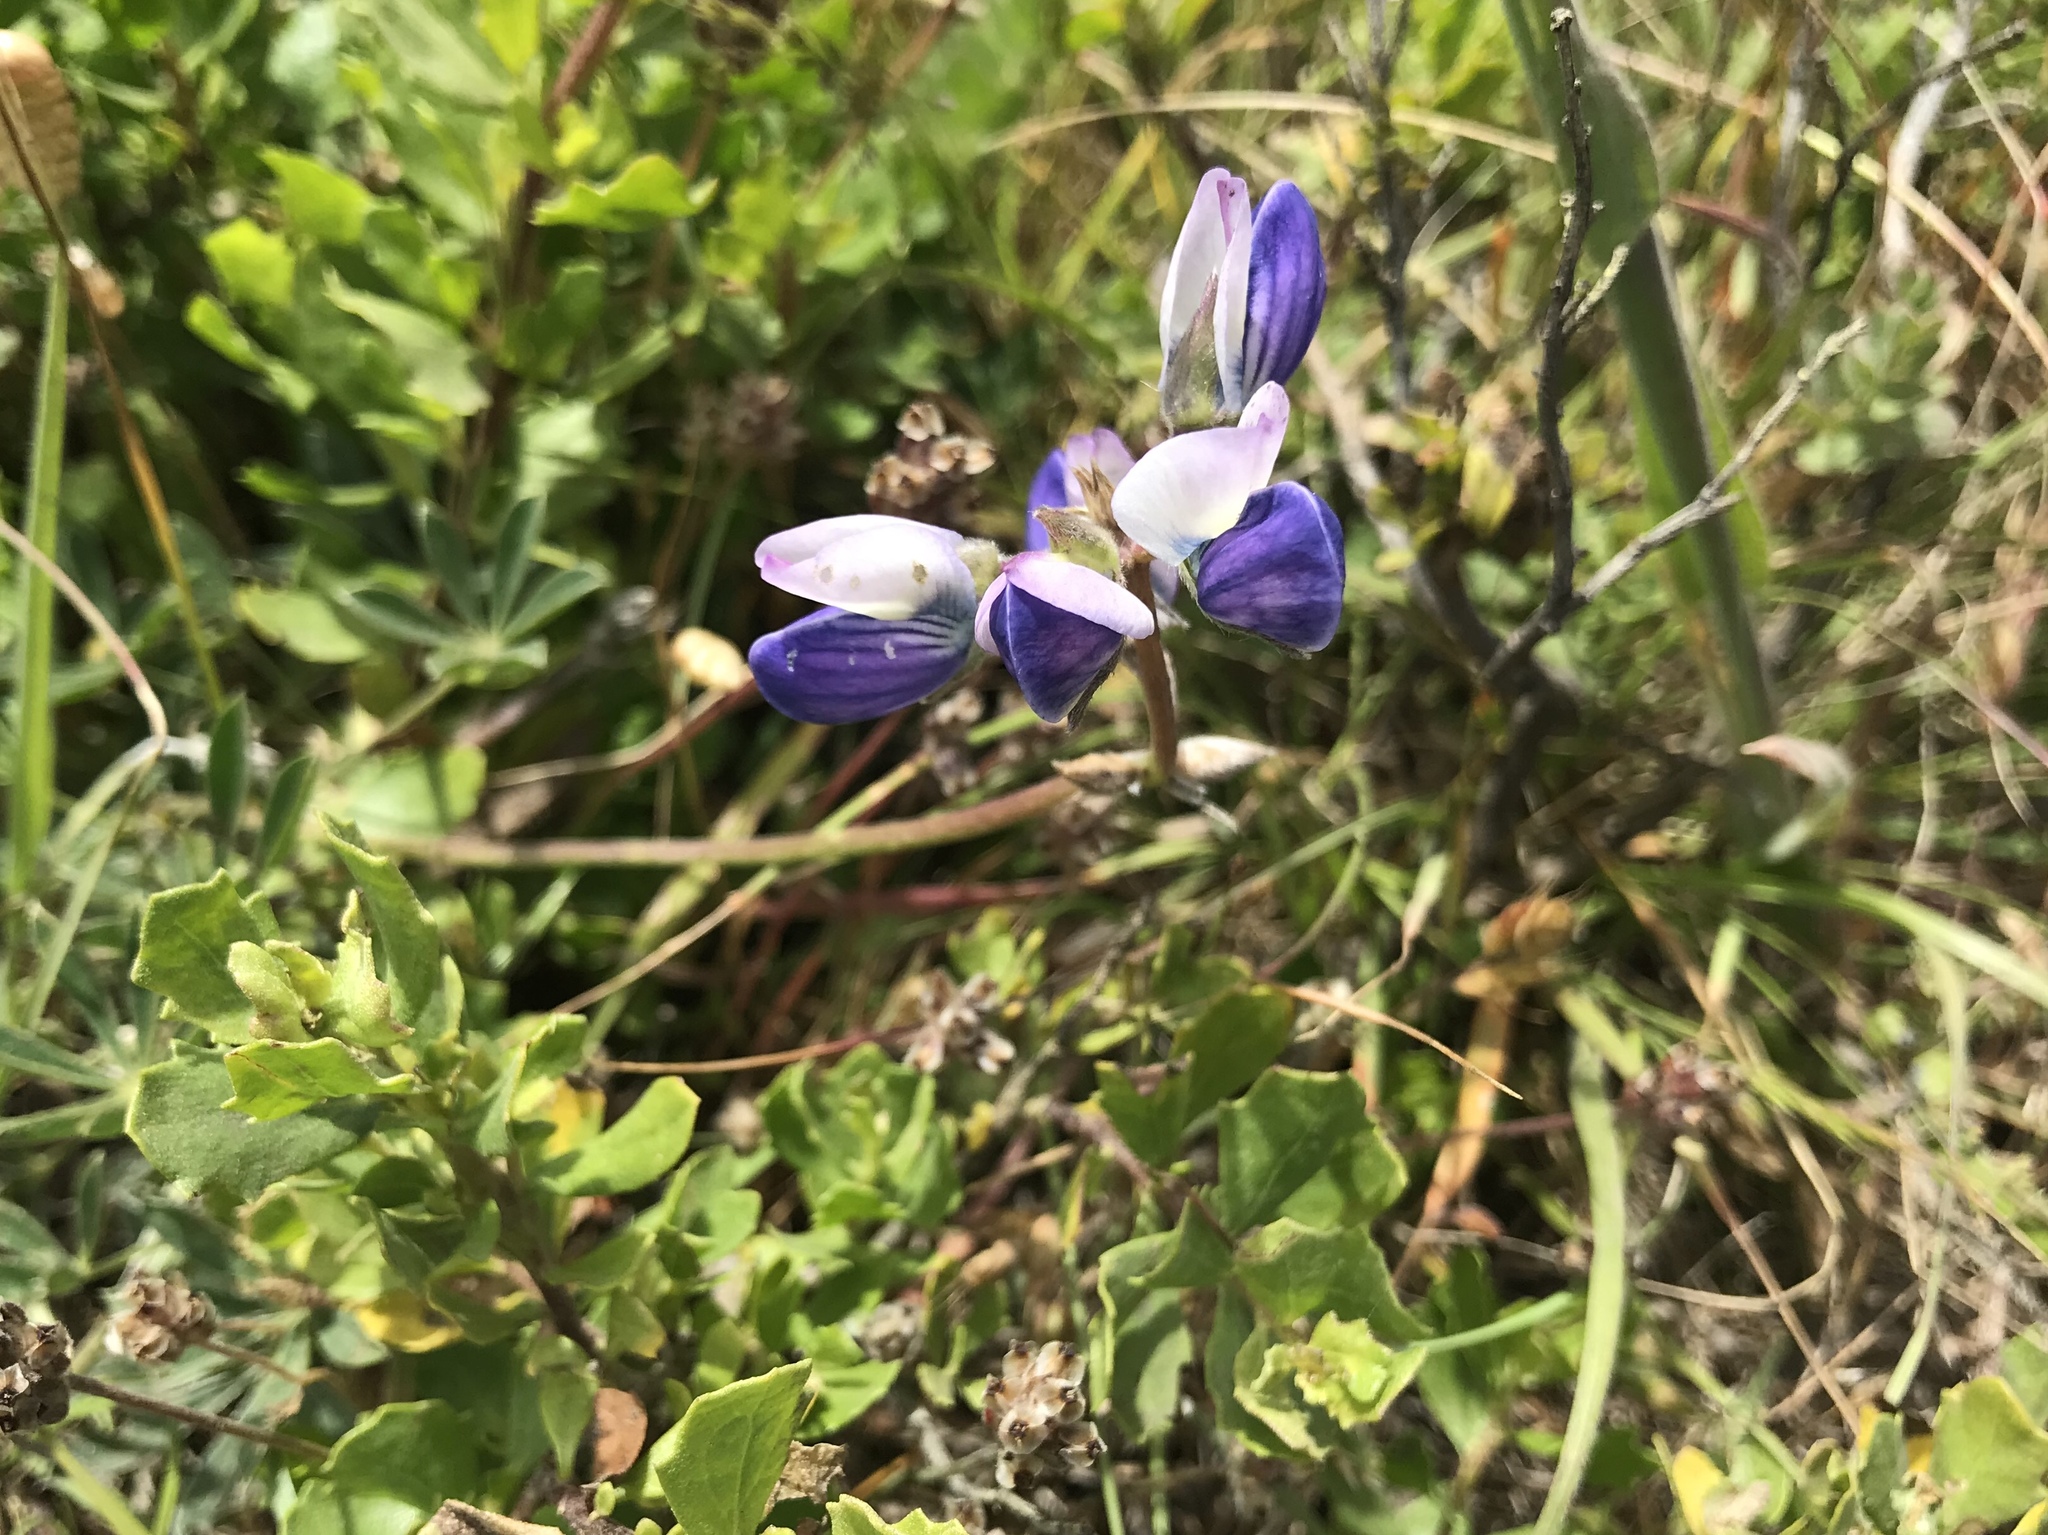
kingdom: Plantae
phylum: Tracheophyta
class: Magnoliopsida
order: Fabales
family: Fabaceae
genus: Lupinus
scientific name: Lupinus variicolor
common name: Lindley's varied lupine
